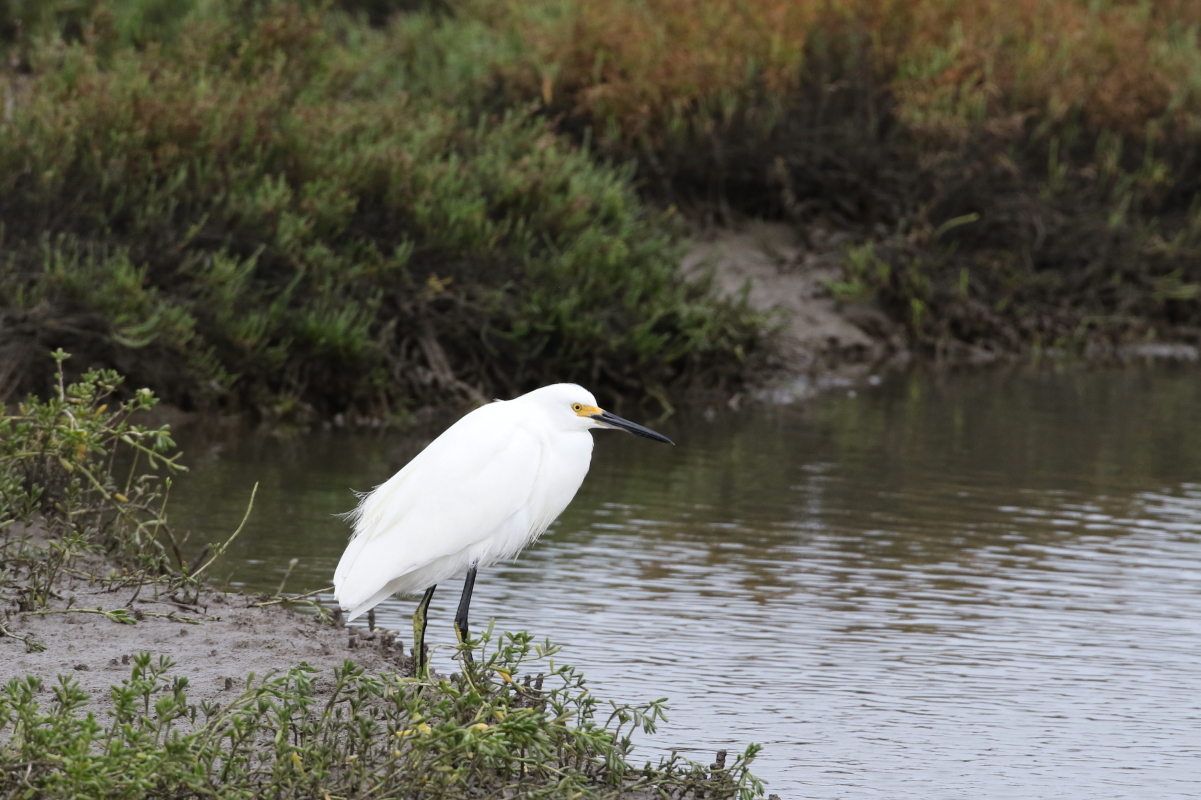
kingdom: Animalia
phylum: Chordata
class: Aves
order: Pelecaniformes
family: Ardeidae
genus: Egretta
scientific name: Egretta thula
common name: Snowy egret
